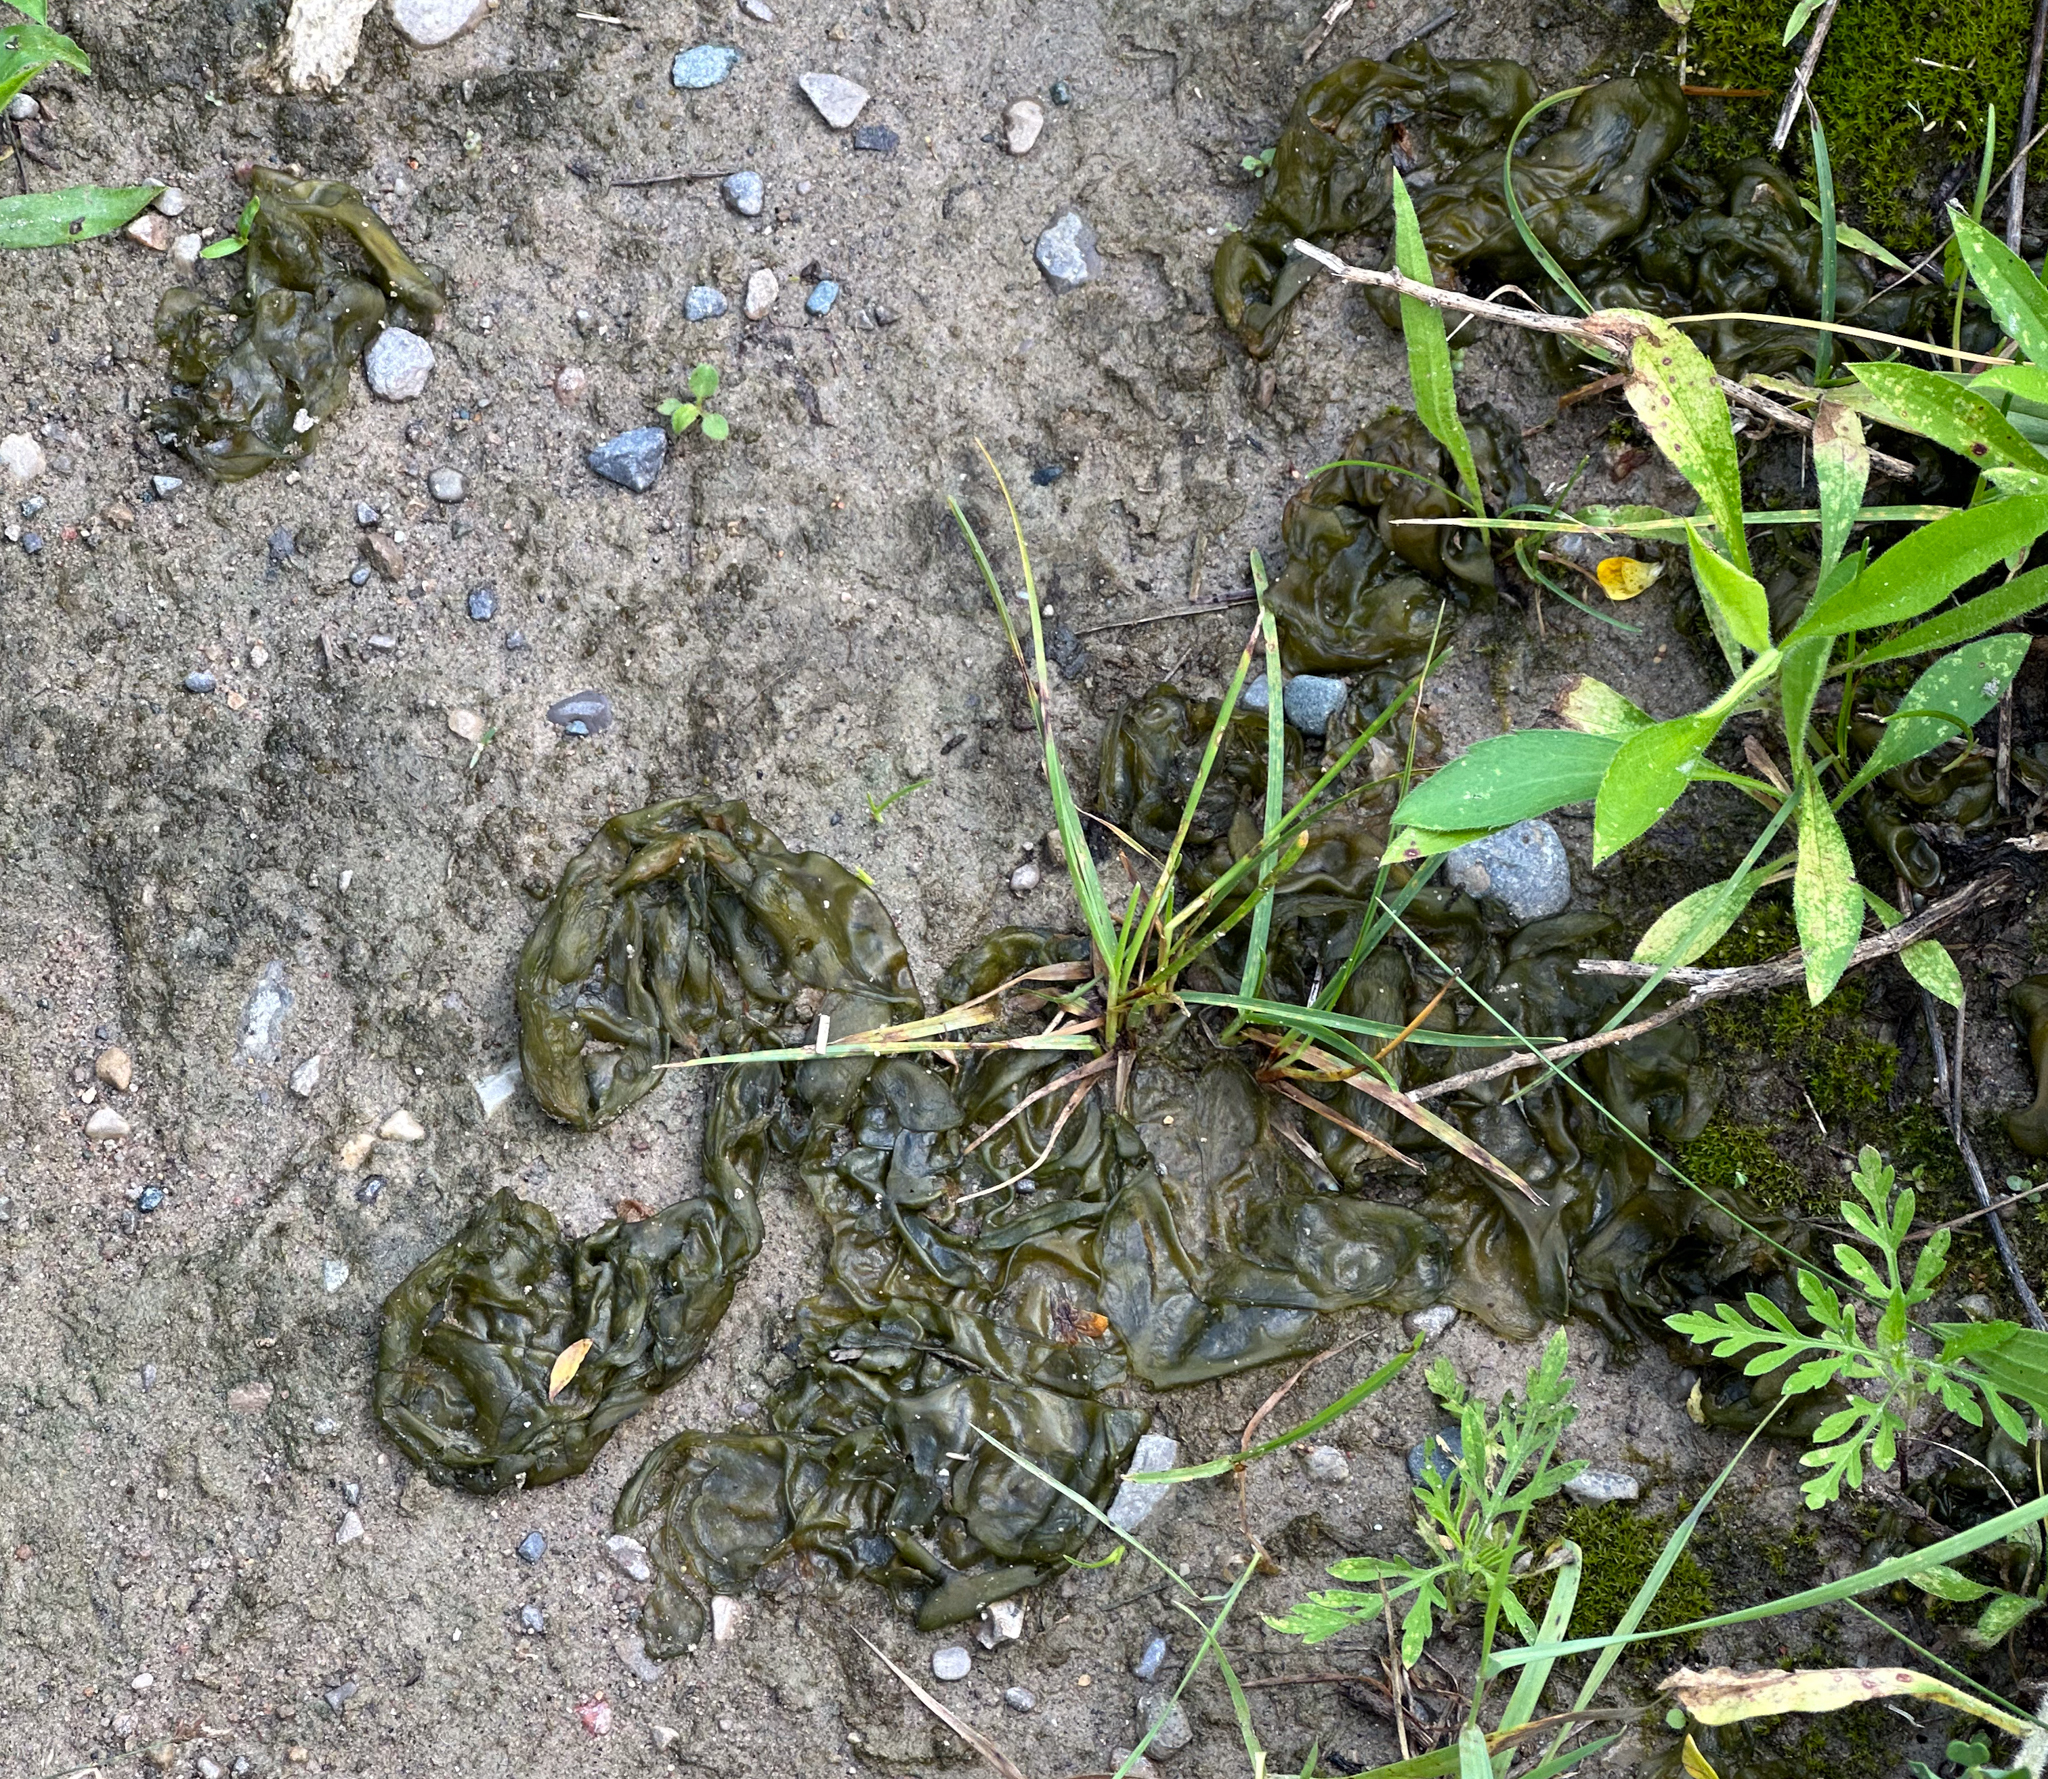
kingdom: Bacteria
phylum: Cyanobacteria
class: Cyanobacteriia
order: Cyanobacteriales
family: Nostocaceae
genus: Nostoc
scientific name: Nostoc commune
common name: Star jelly
